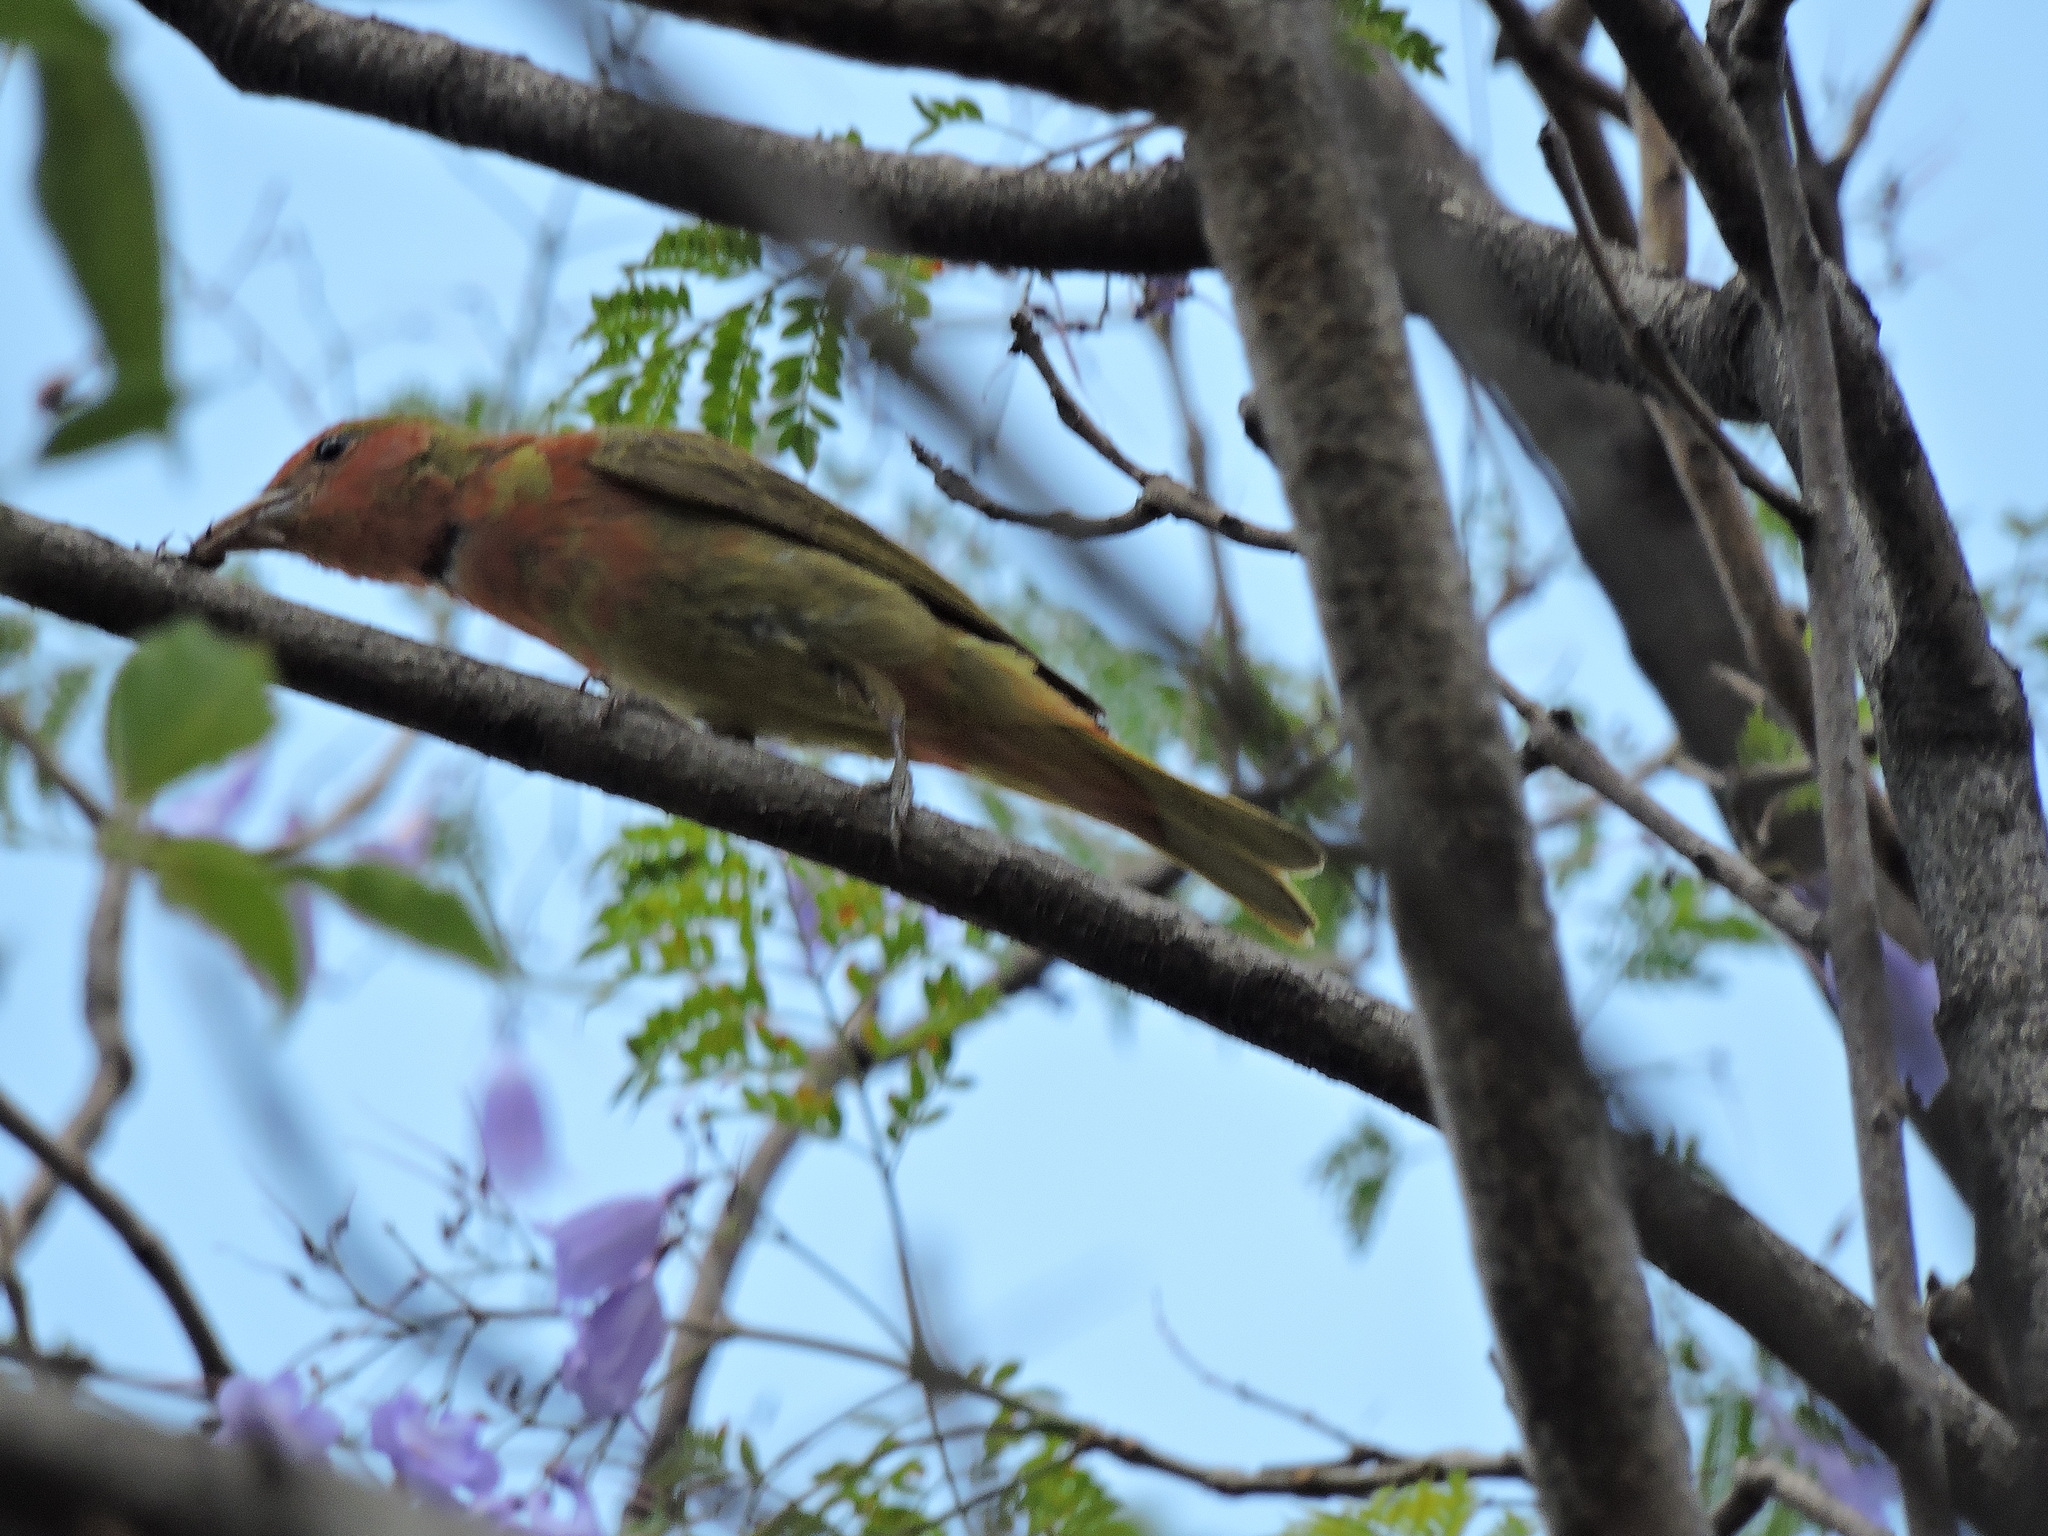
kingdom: Animalia
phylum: Chordata
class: Aves
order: Passeriformes
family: Cardinalidae
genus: Piranga
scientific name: Piranga rubra
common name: Summer tanager
